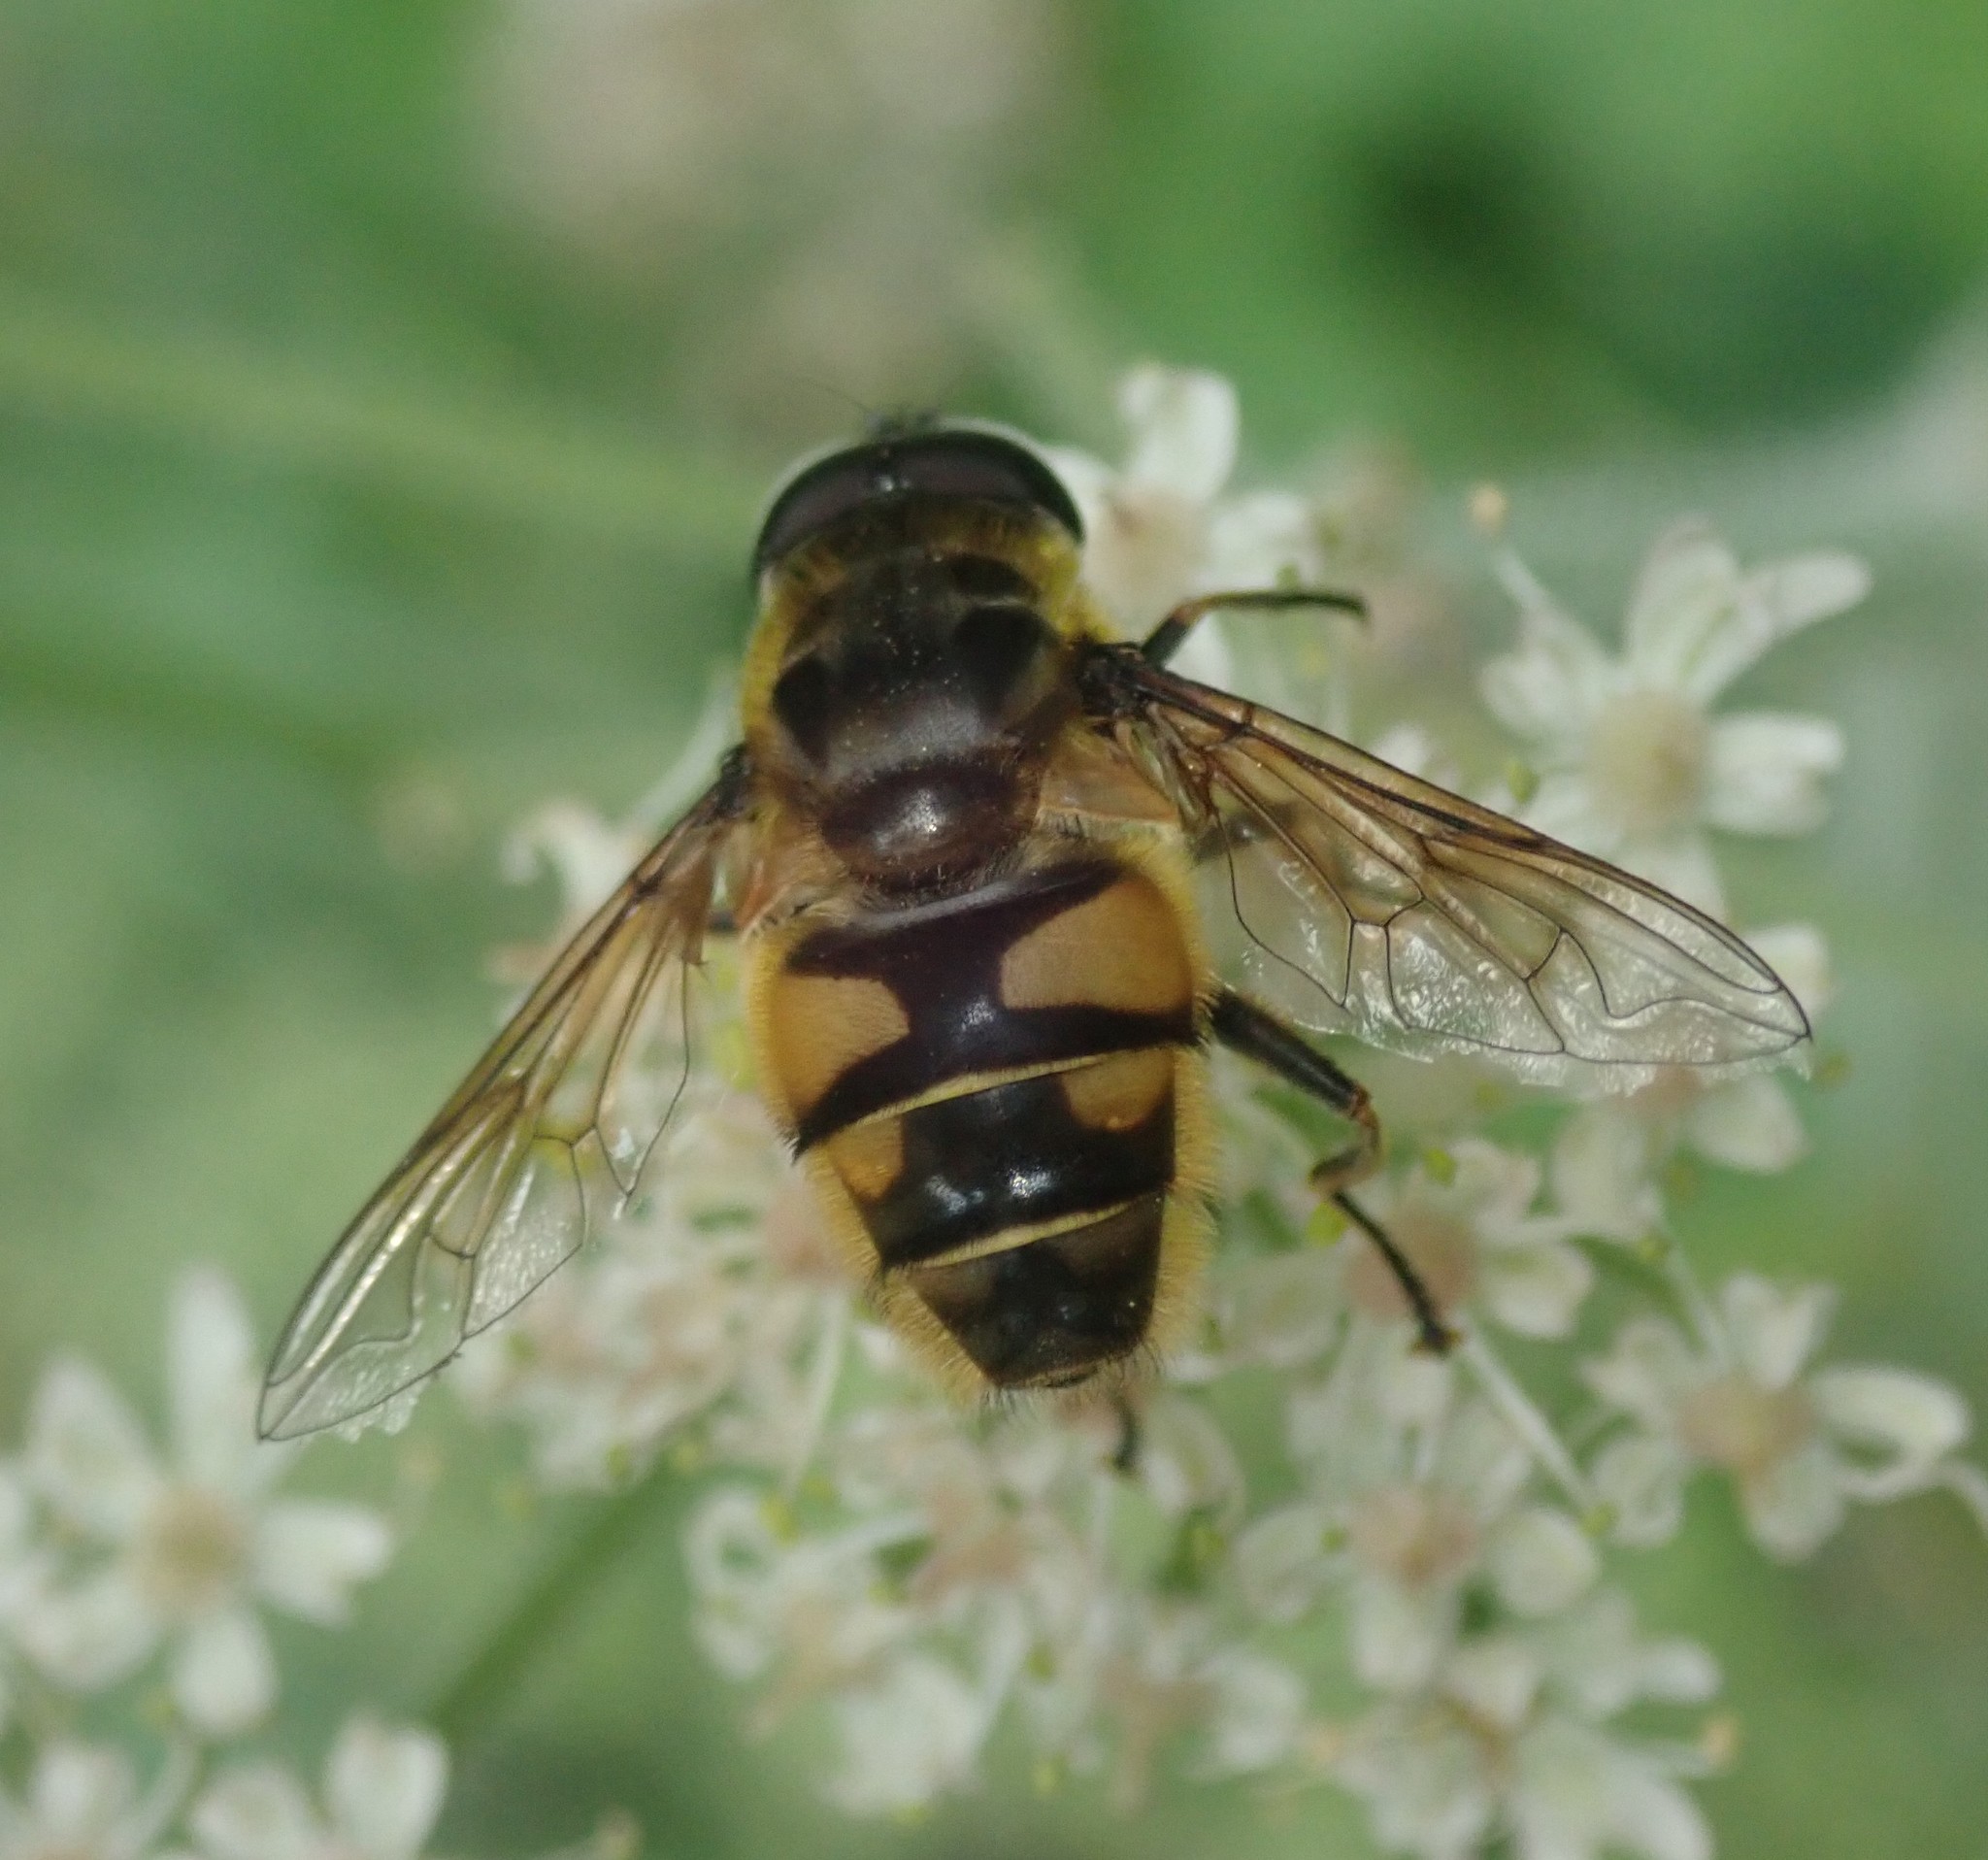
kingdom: Animalia
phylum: Arthropoda
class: Insecta
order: Diptera
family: Syrphidae
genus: Myathropa
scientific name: Myathropa florea
